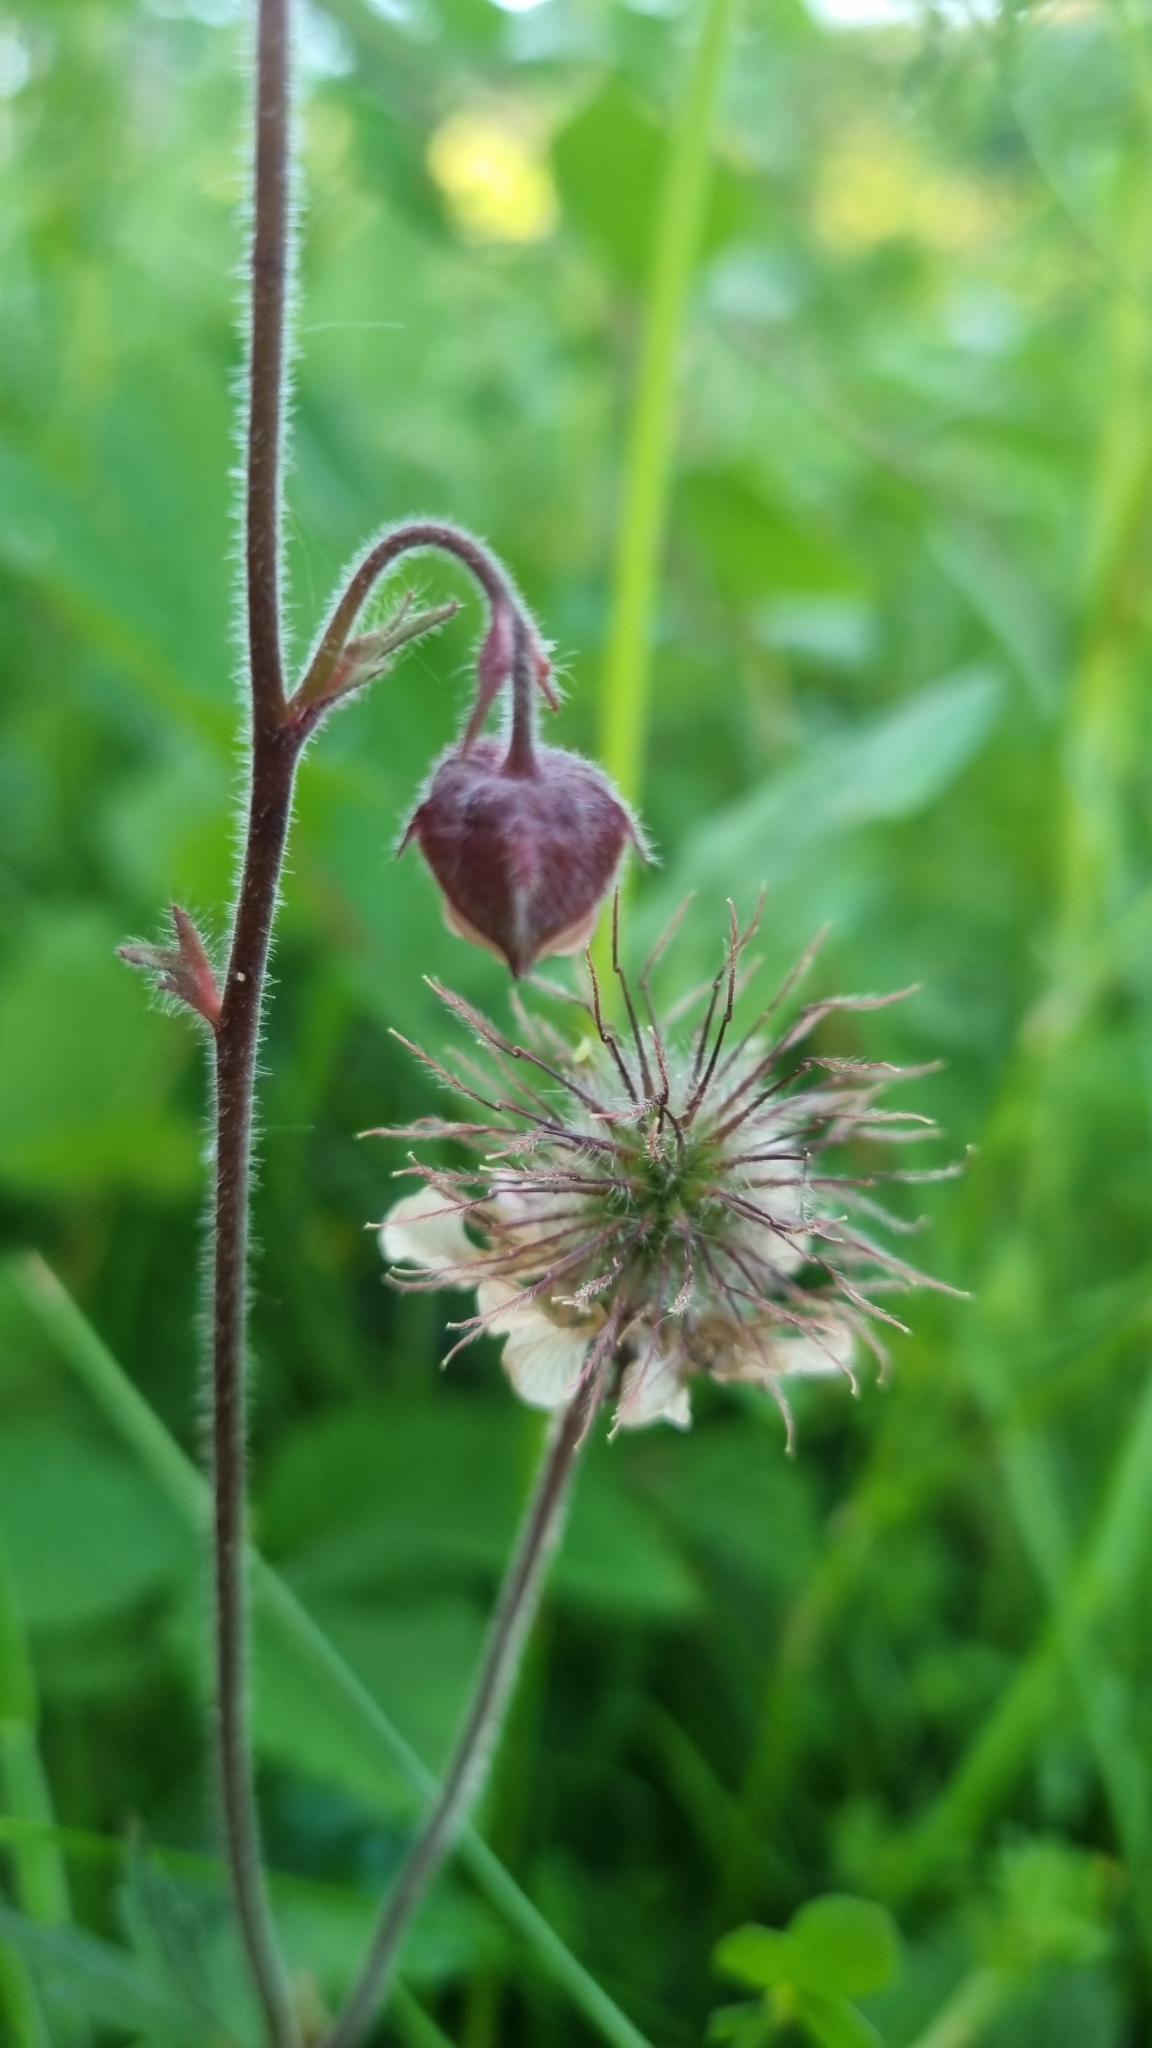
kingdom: Plantae
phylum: Tracheophyta
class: Magnoliopsida
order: Rosales
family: Rosaceae
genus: Geum
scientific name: Geum rivale
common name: Water avens
